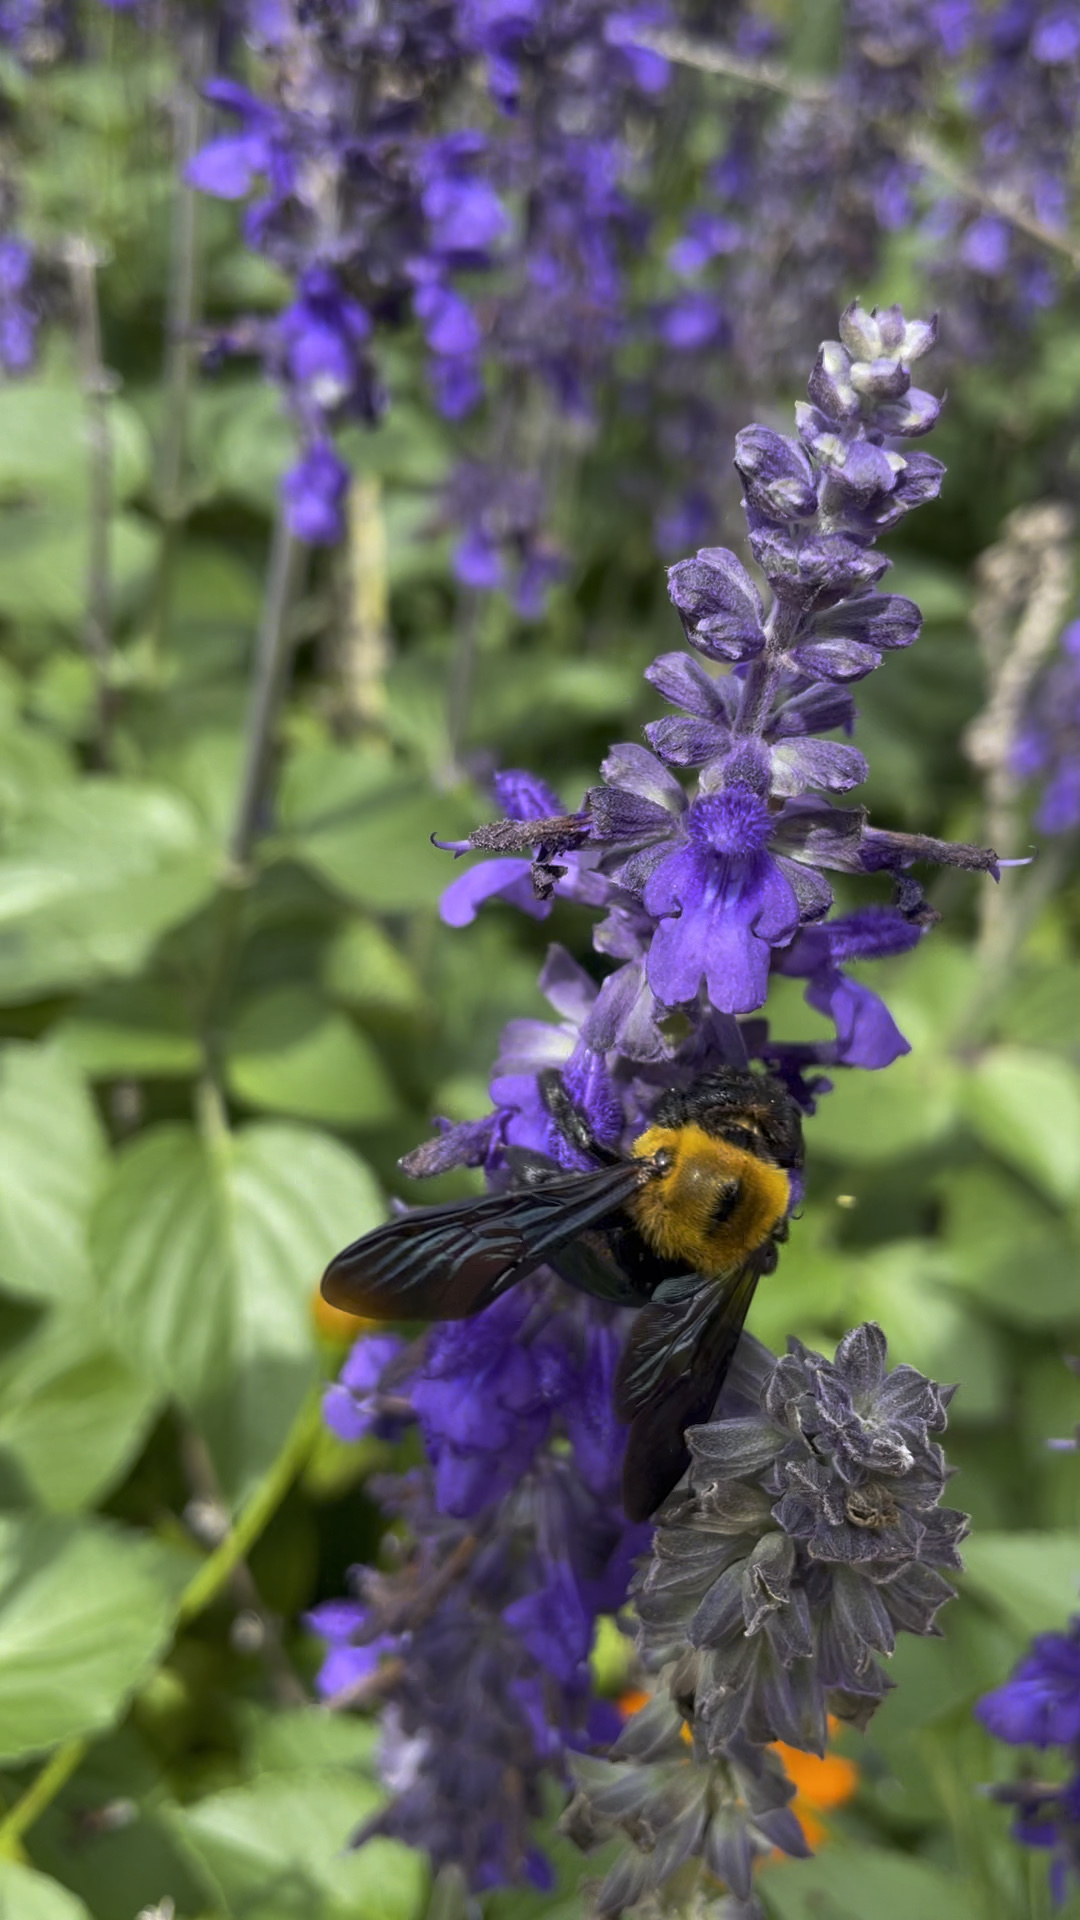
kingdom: Animalia
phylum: Arthropoda
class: Insecta
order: Hymenoptera
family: Apidae
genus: Xylocopa
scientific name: Xylocopa appendiculata
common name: Japanese carpenter bee
